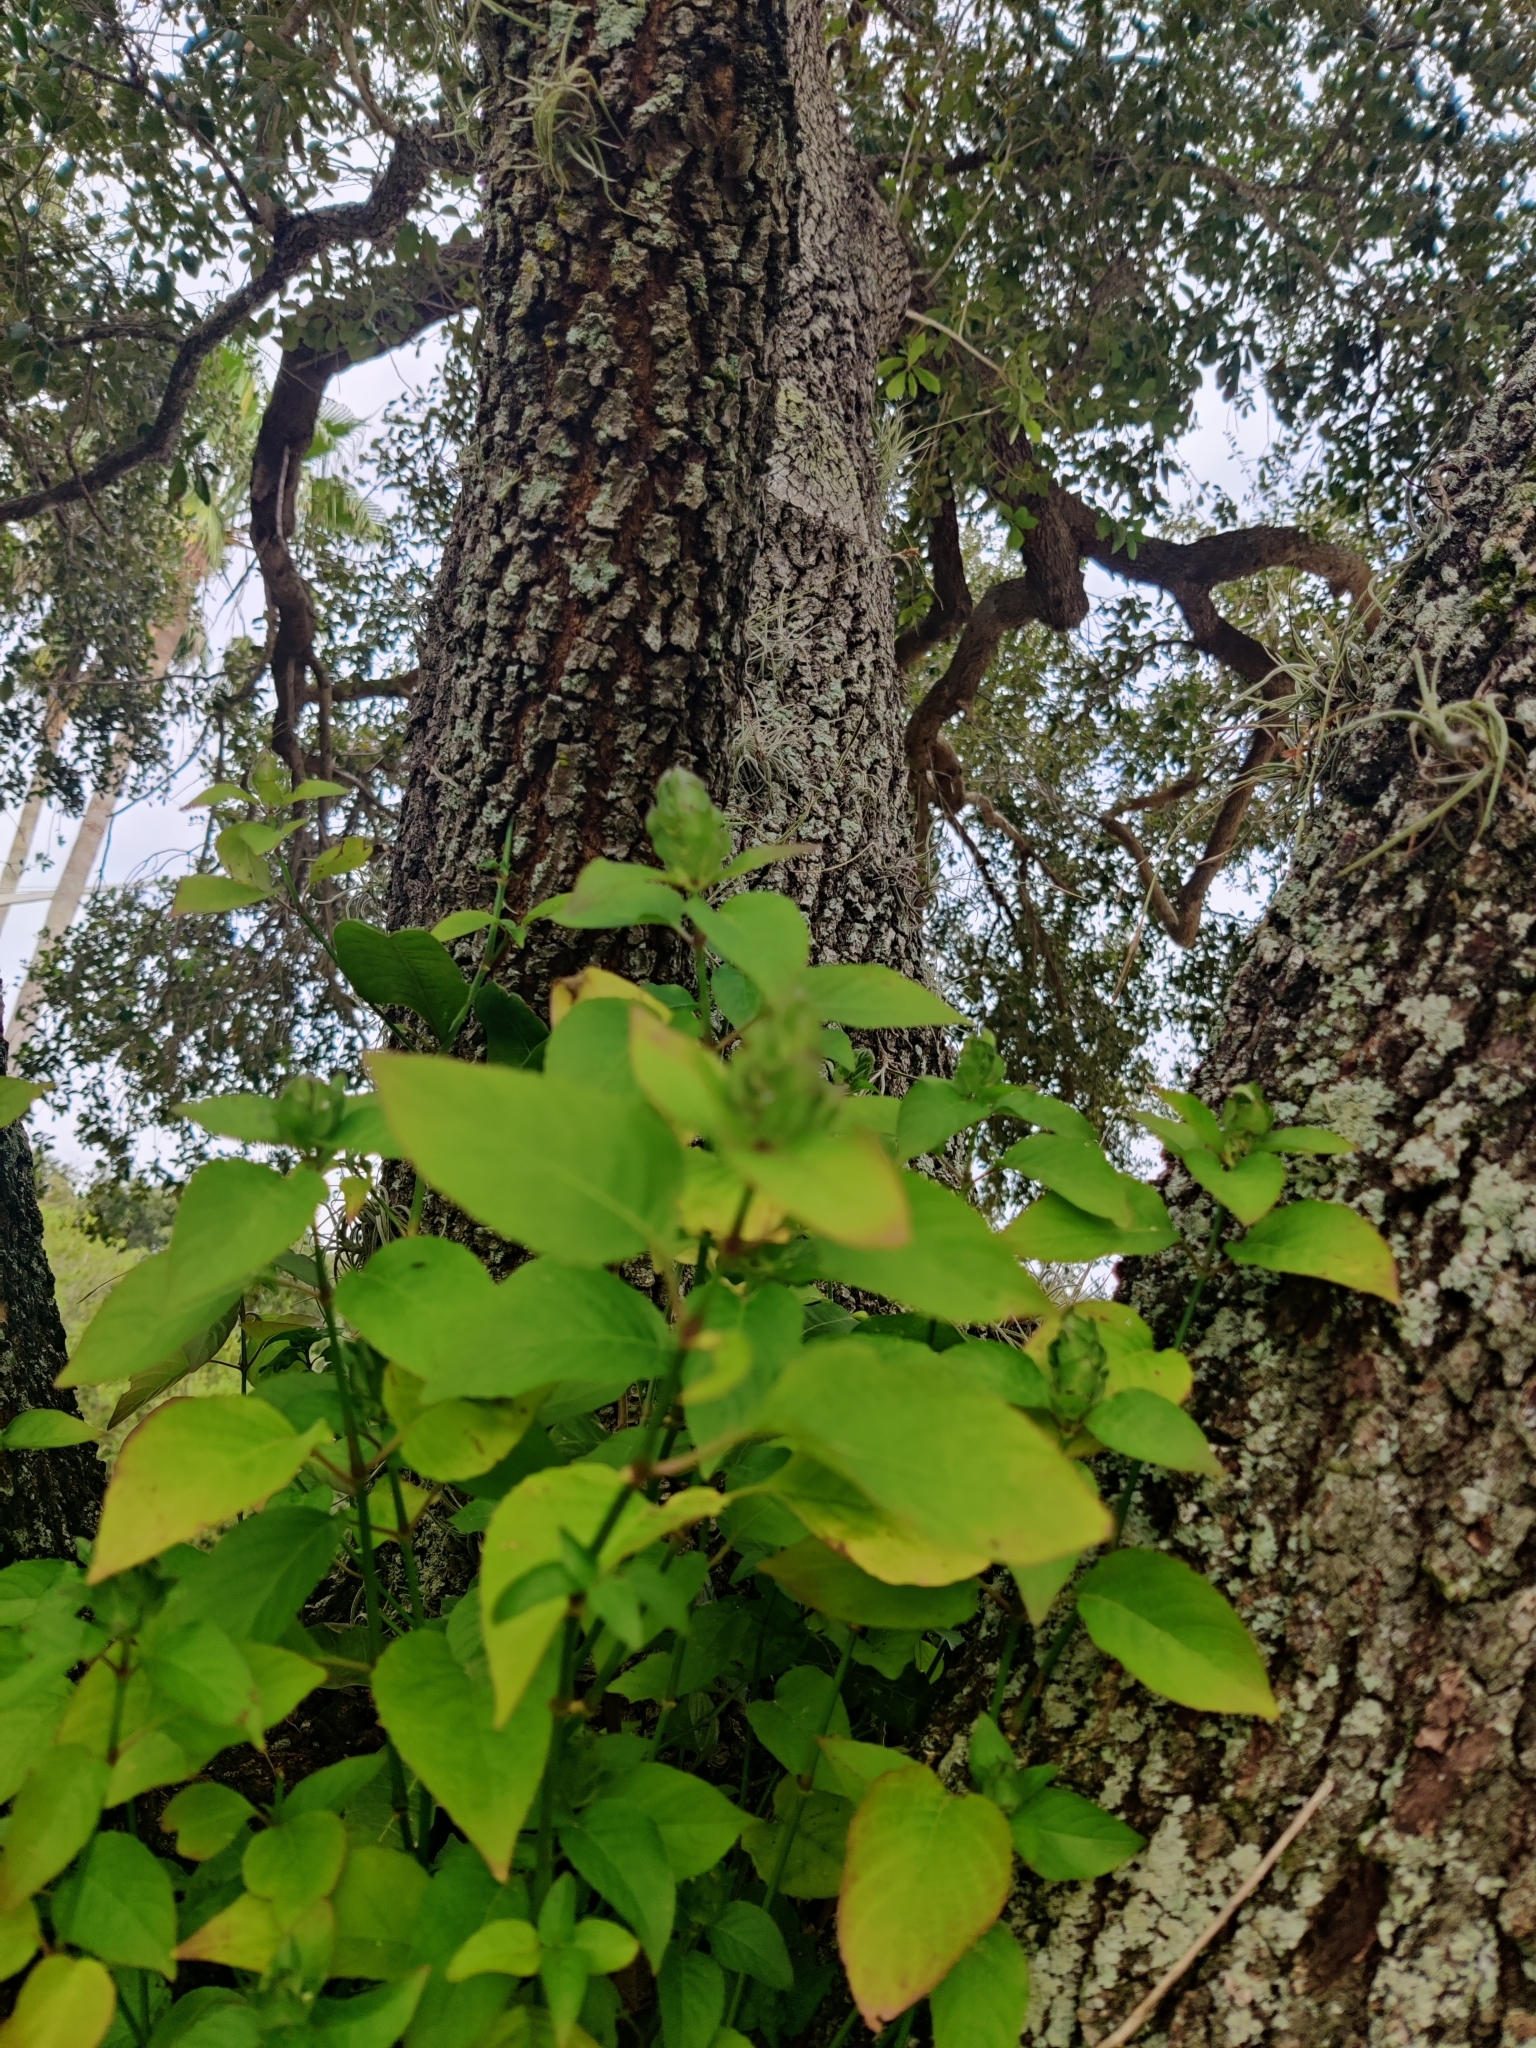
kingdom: Plantae
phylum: Tracheophyta
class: Magnoliopsida
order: Lamiales
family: Acanthaceae
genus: Ruellia
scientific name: Ruellia blechum
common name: Browne's blechum
